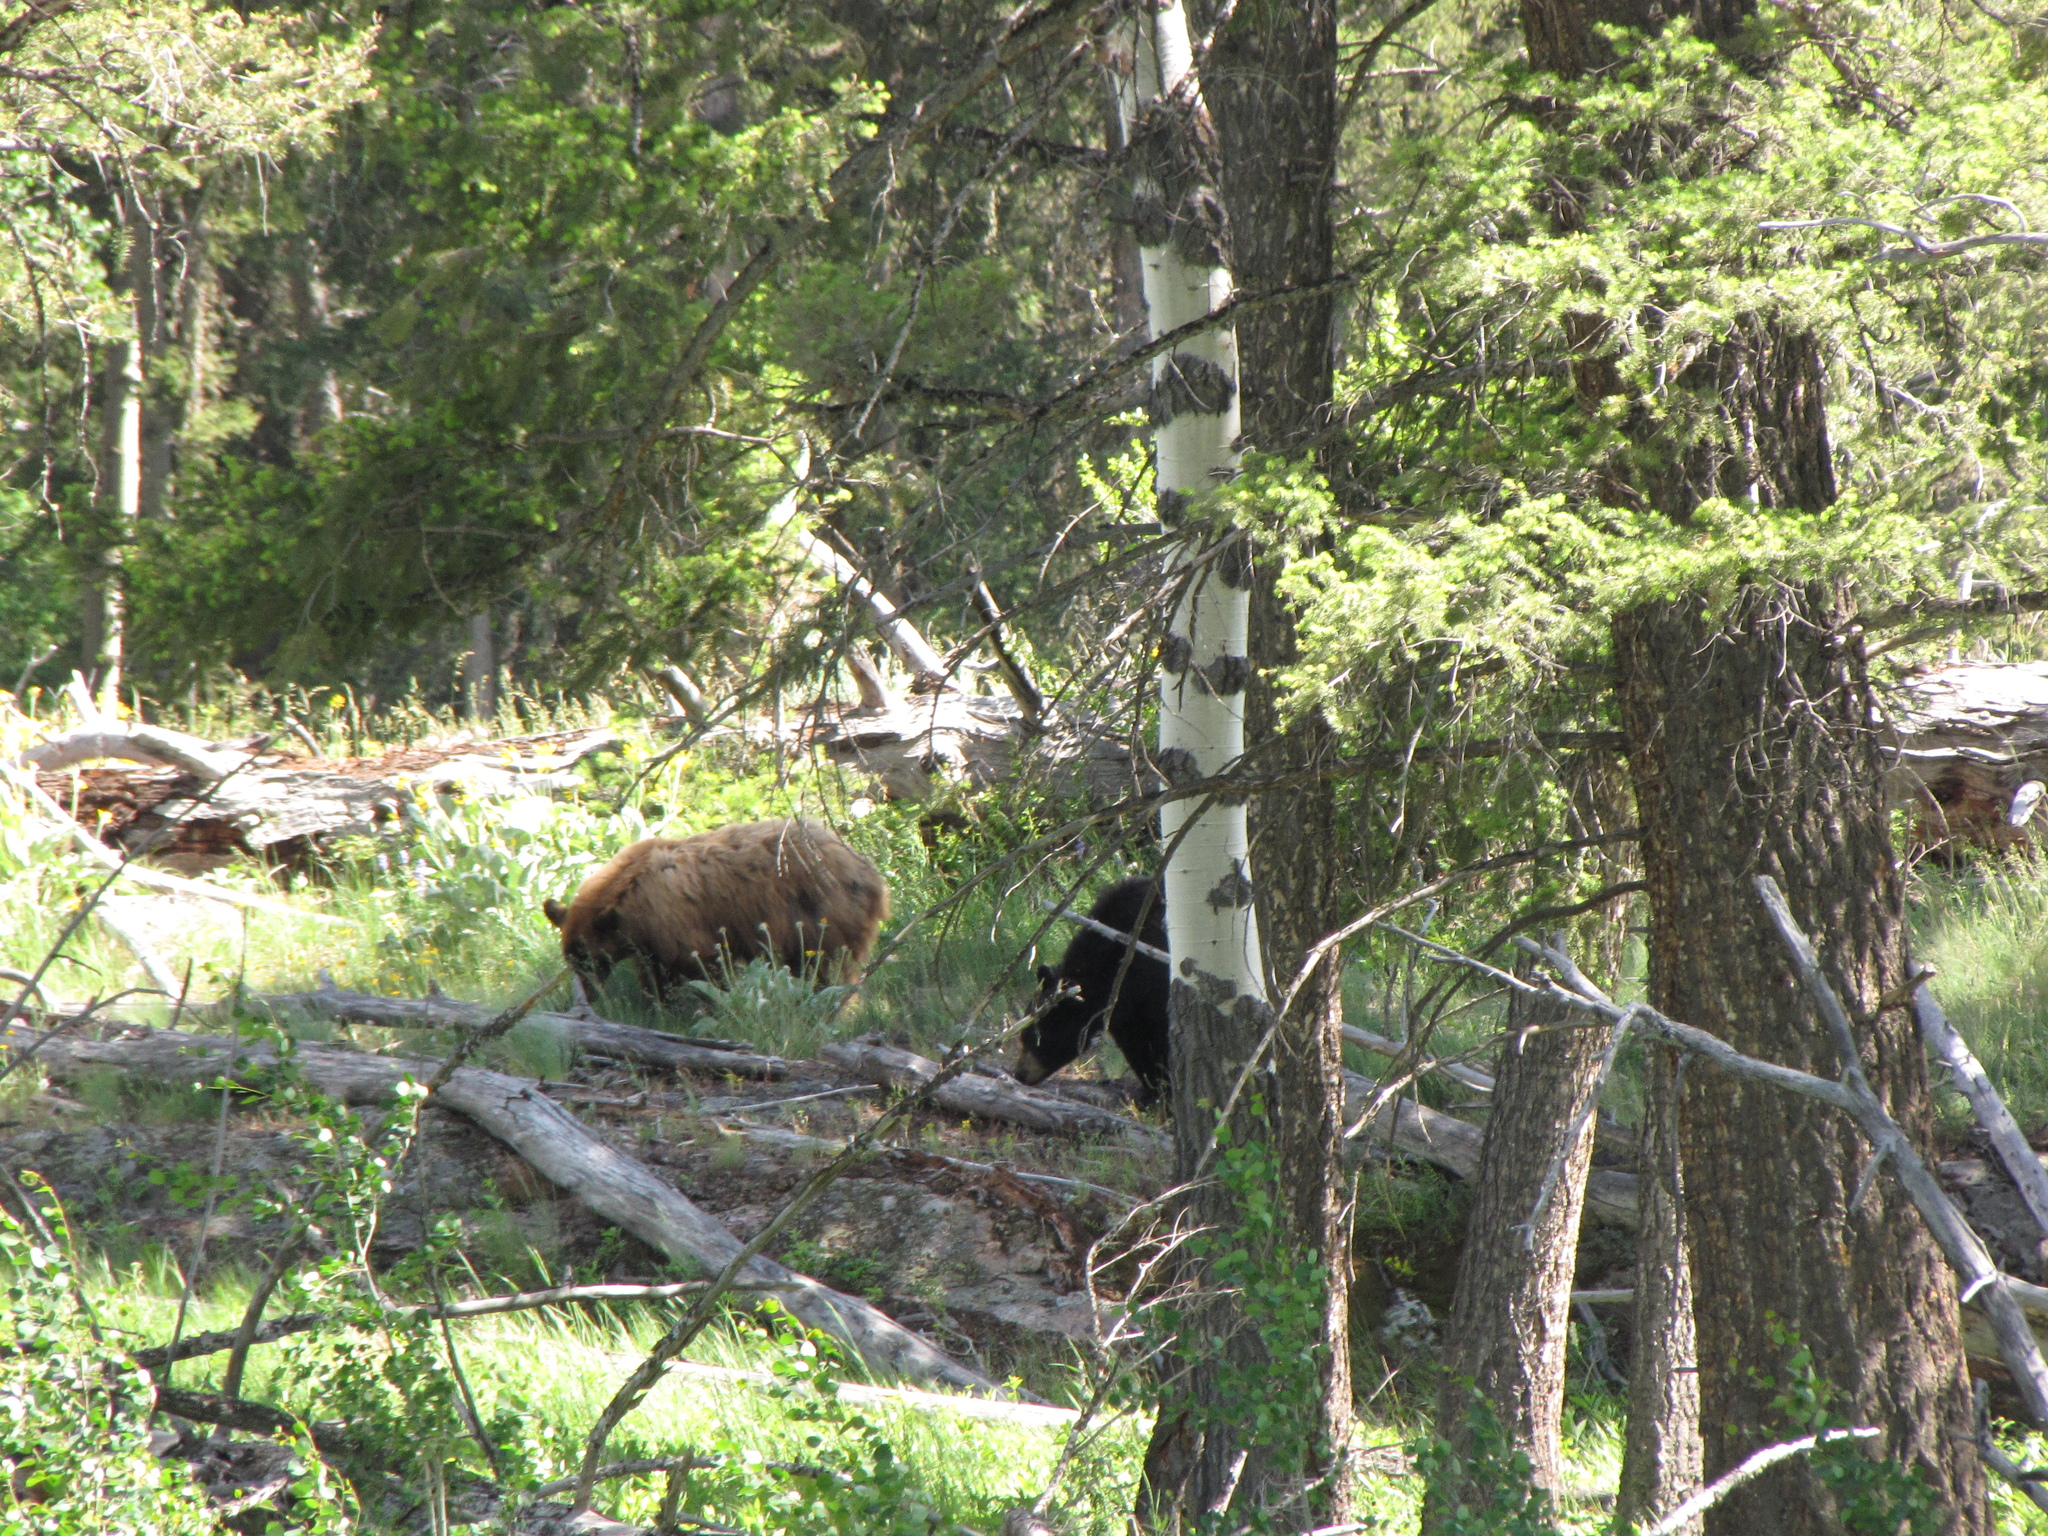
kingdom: Animalia
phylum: Chordata
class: Mammalia
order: Carnivora
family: Ursidae
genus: Ursus
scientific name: Ursus americanus
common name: American black bear
